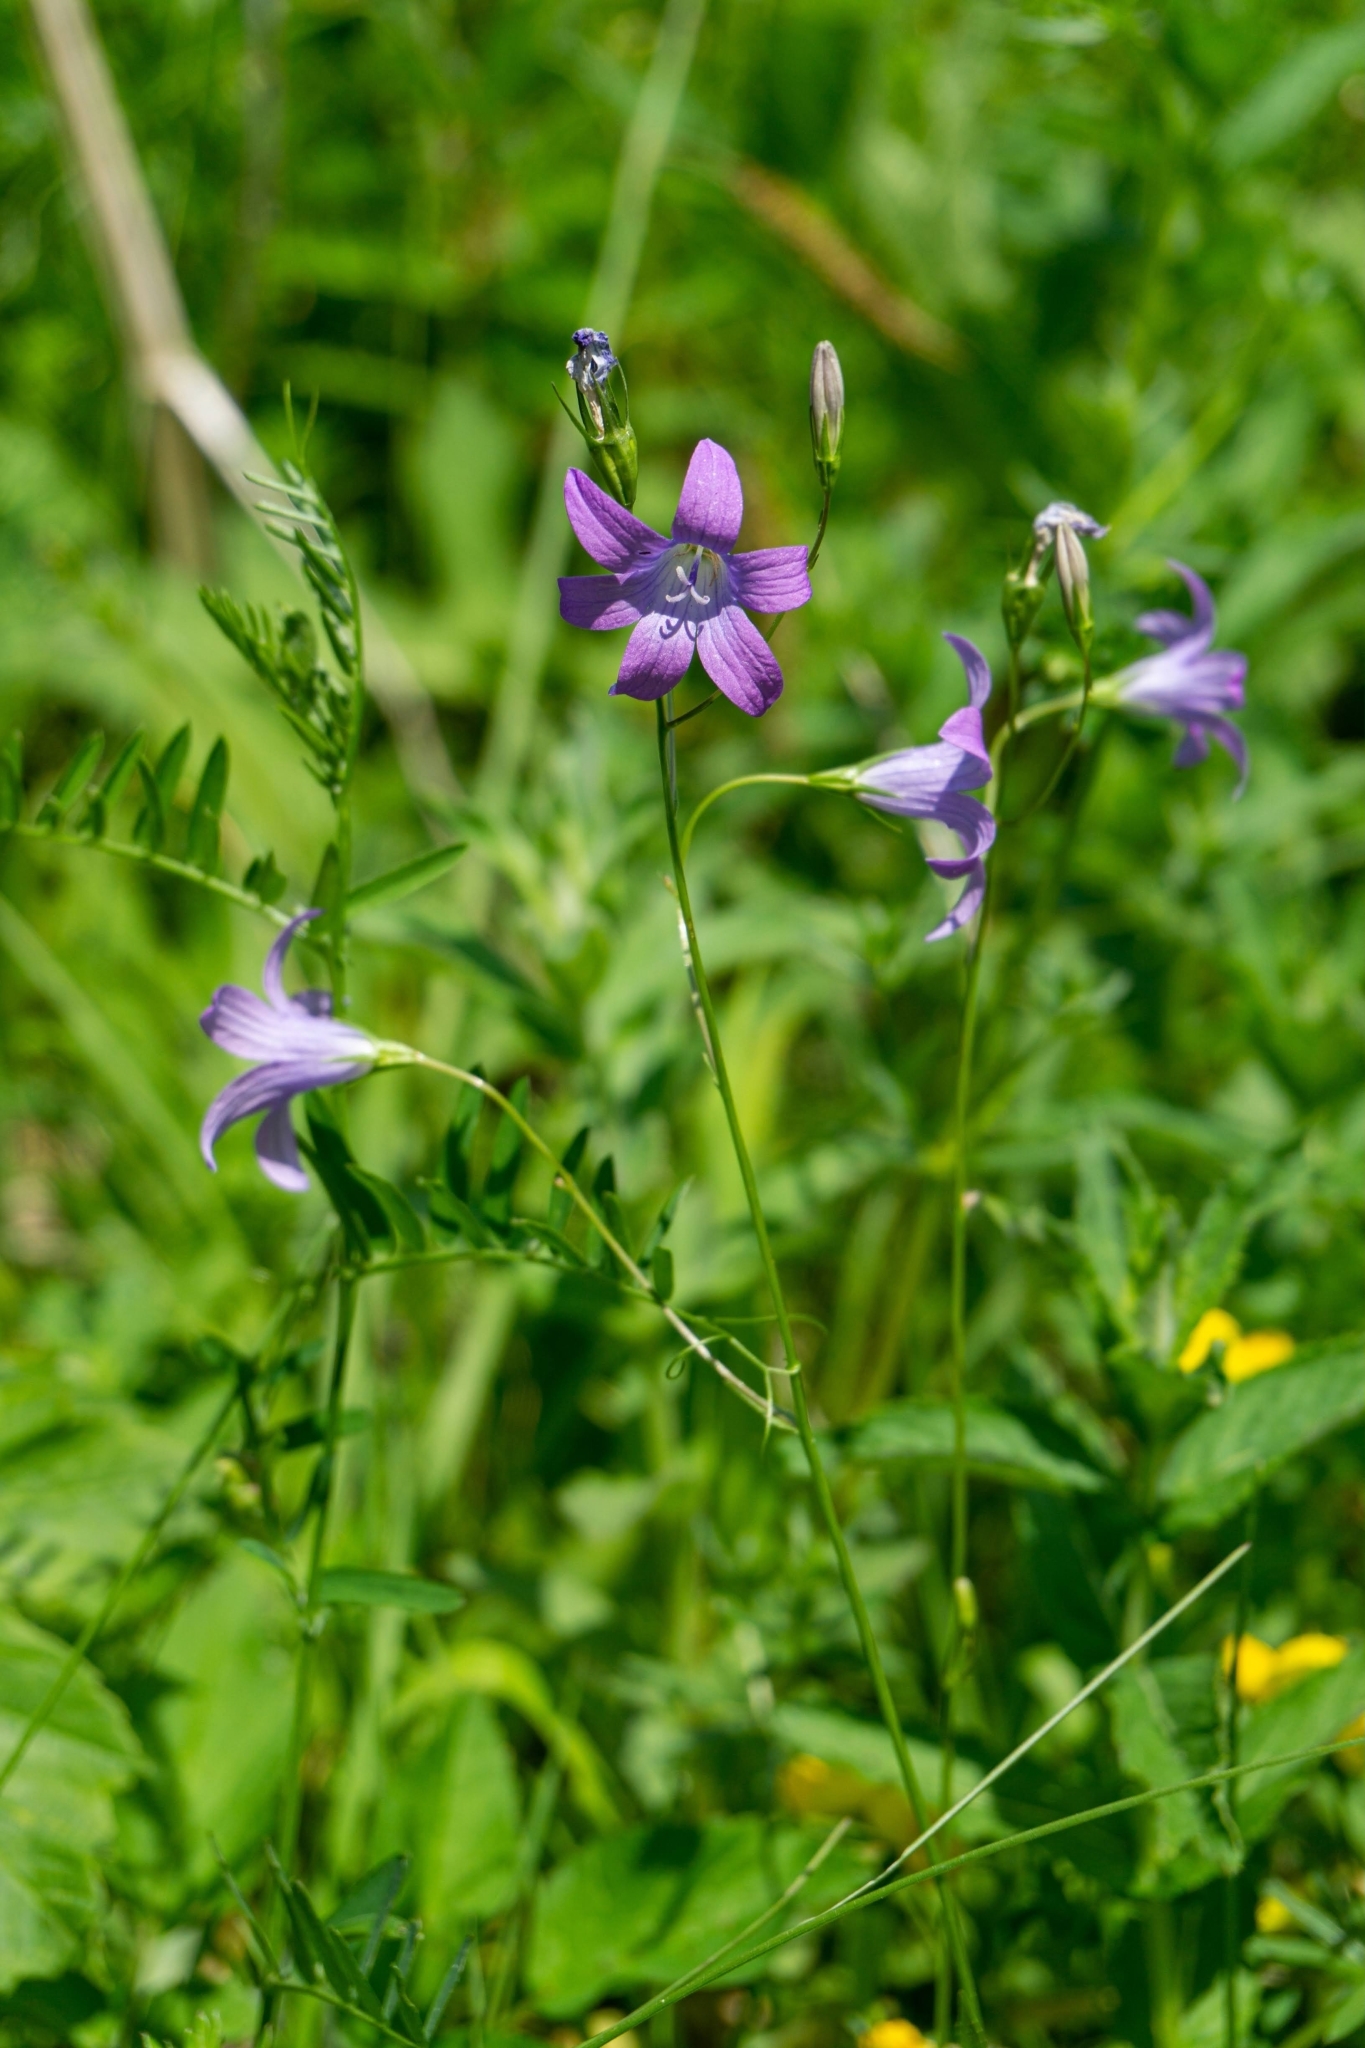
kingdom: Plantae
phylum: Tracheophyta
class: Magnoliopsida
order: Asterales
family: Campanulaceae
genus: Campanula
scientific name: Campanula patula
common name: Spreading bellflower
